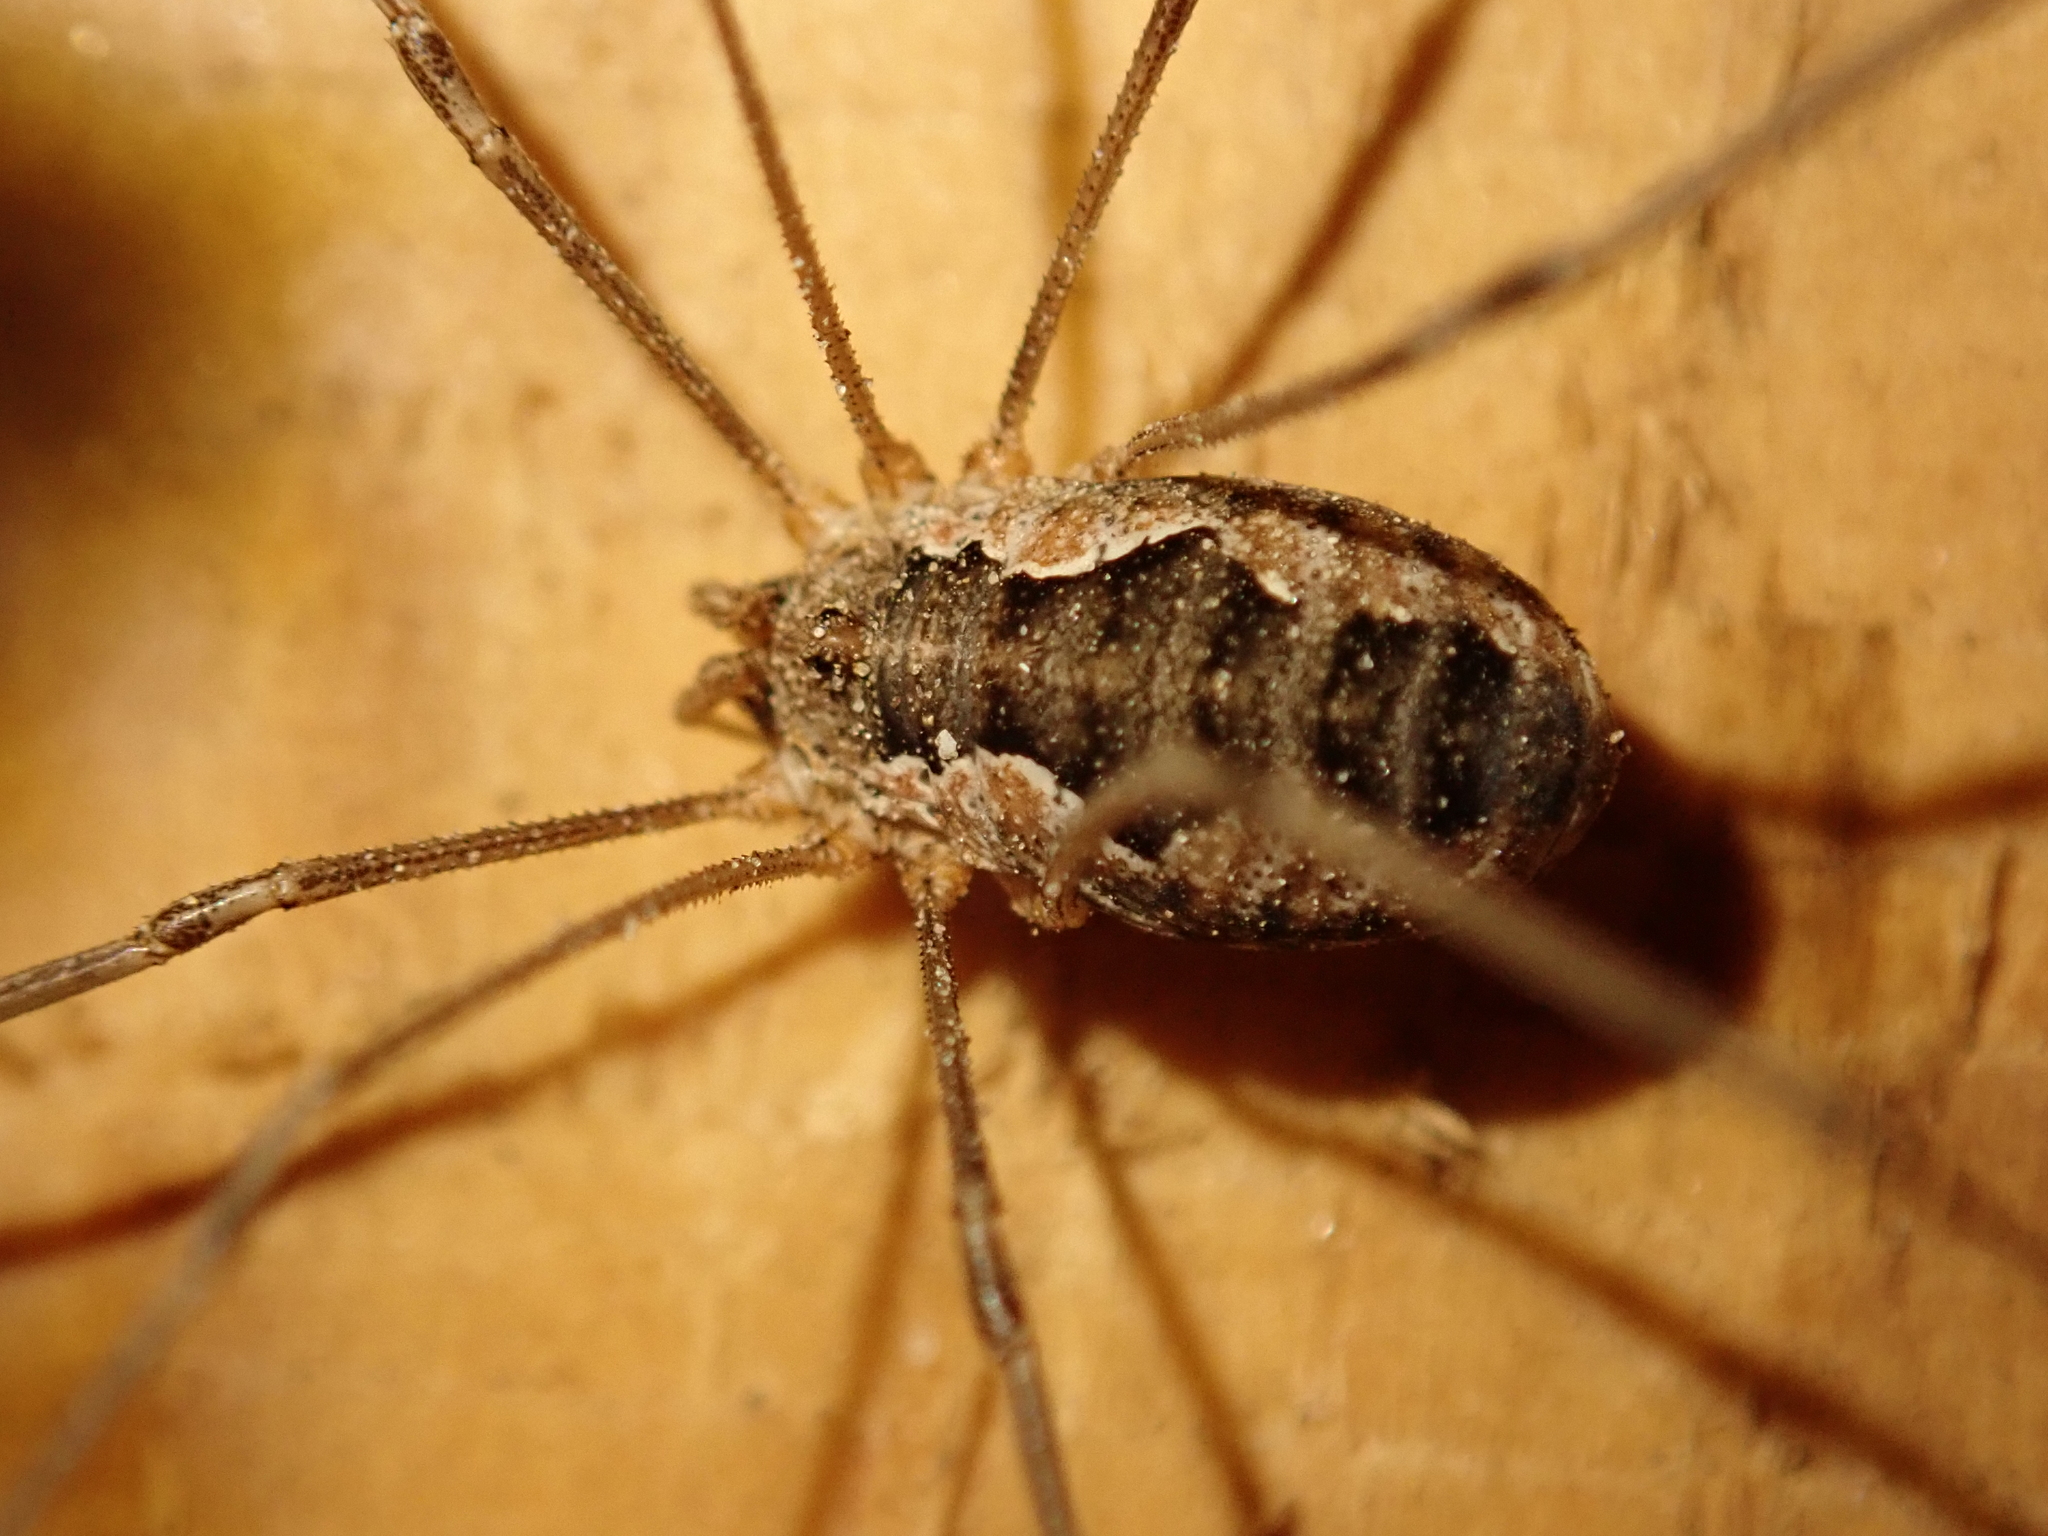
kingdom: Animalia
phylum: Arthropoda
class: Arachnida
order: Opiliones
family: Phalangiidae
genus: Phalangium
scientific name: Phalangium opilio
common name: Daddy longleg
